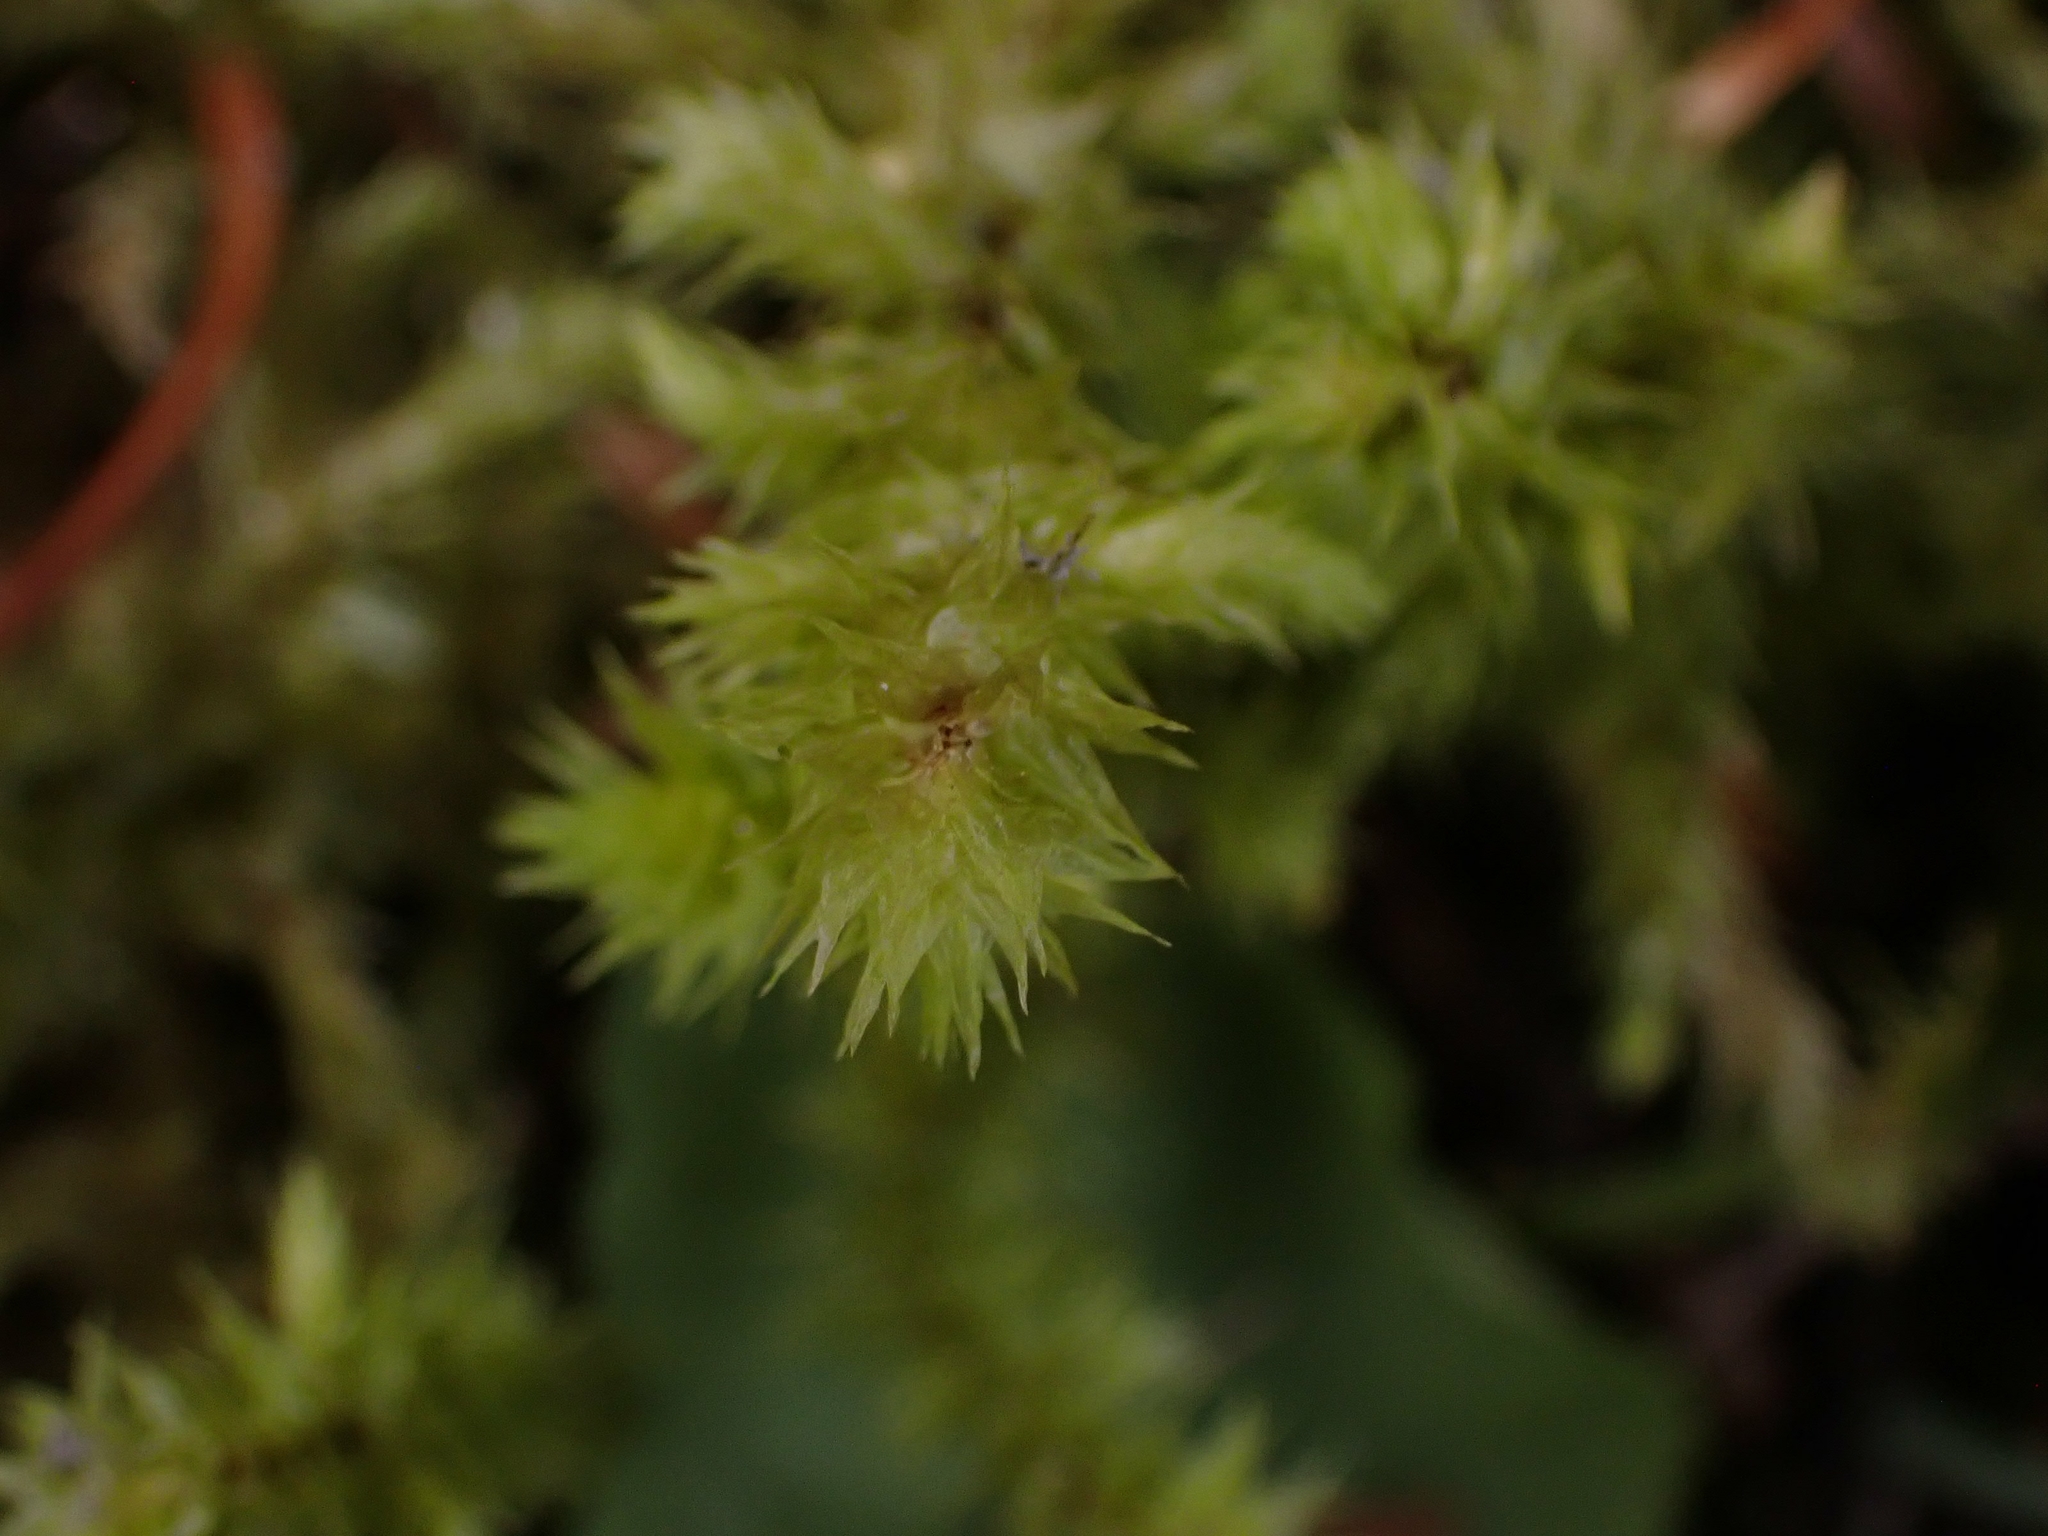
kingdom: Plantae
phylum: Bryophyta
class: Bryopsida
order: Hypnales
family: Hylocomiaceae
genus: Hylocomiadelphus
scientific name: Hylocomiadelphus triquetrus
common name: Rough goose neck moss
